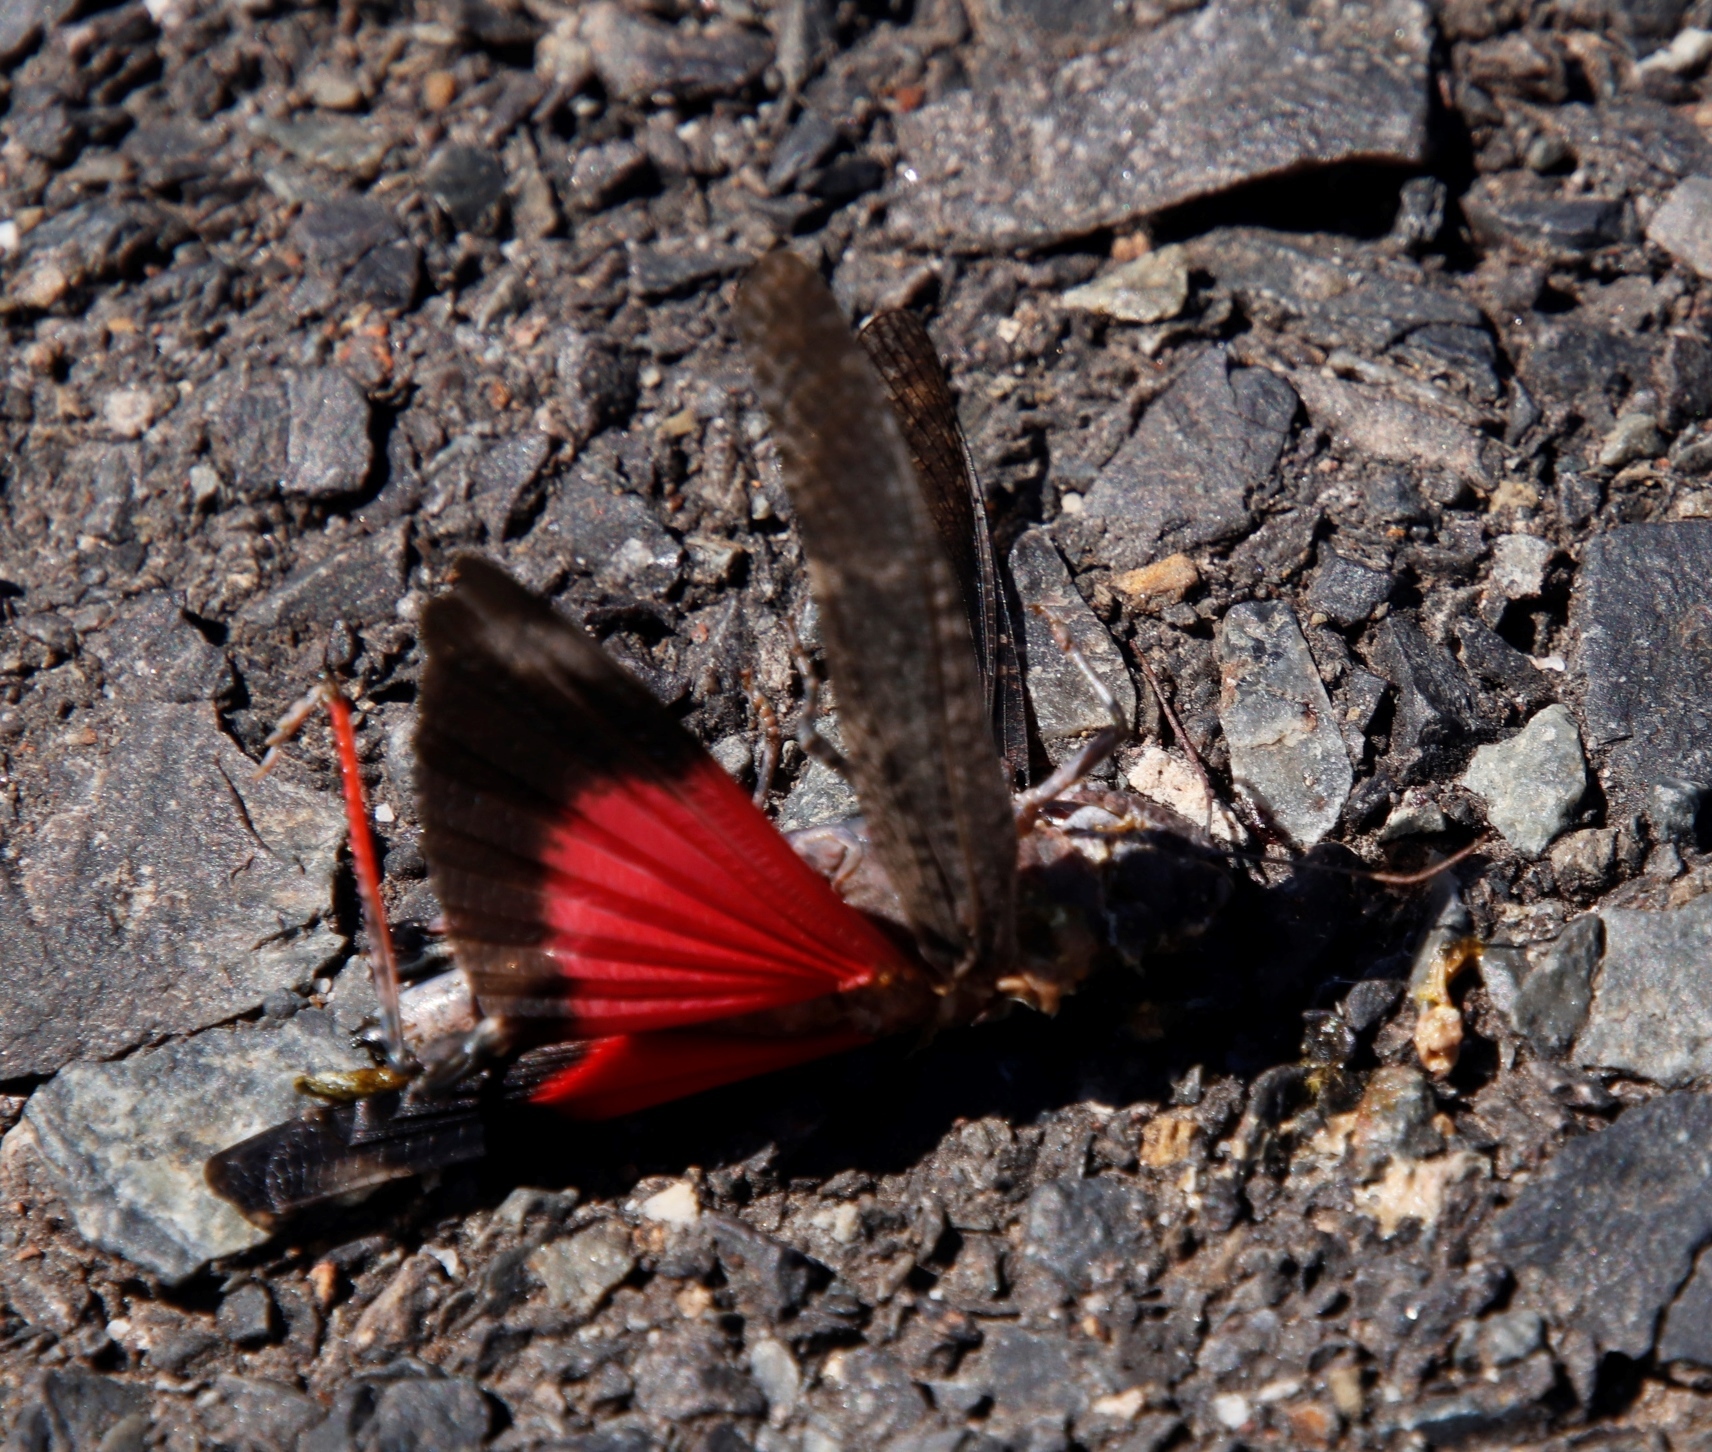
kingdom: Animalia
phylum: Arthropoda
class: Insecta
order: Orthoptera
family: Acrididae
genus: Scintharista
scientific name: Scintharista saucia
